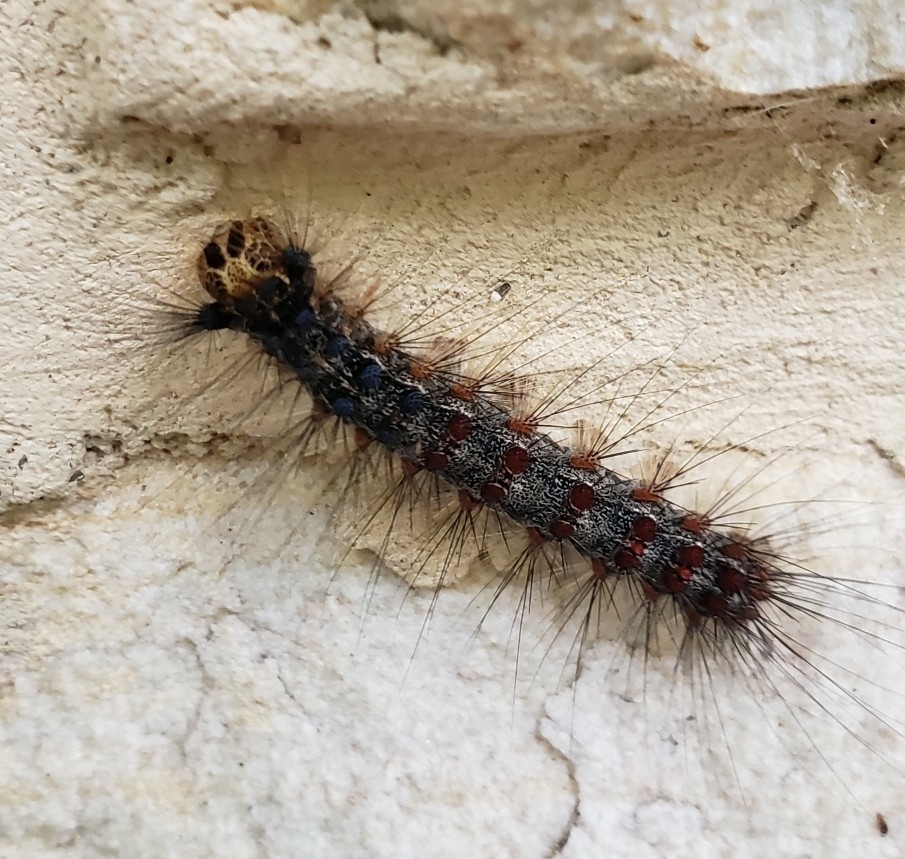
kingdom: Animalia
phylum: Arthropoda
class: Insecta
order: Lepidoptera
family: Erebidae
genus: Lymantria
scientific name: Lymantria dispar
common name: Gypsy moth
